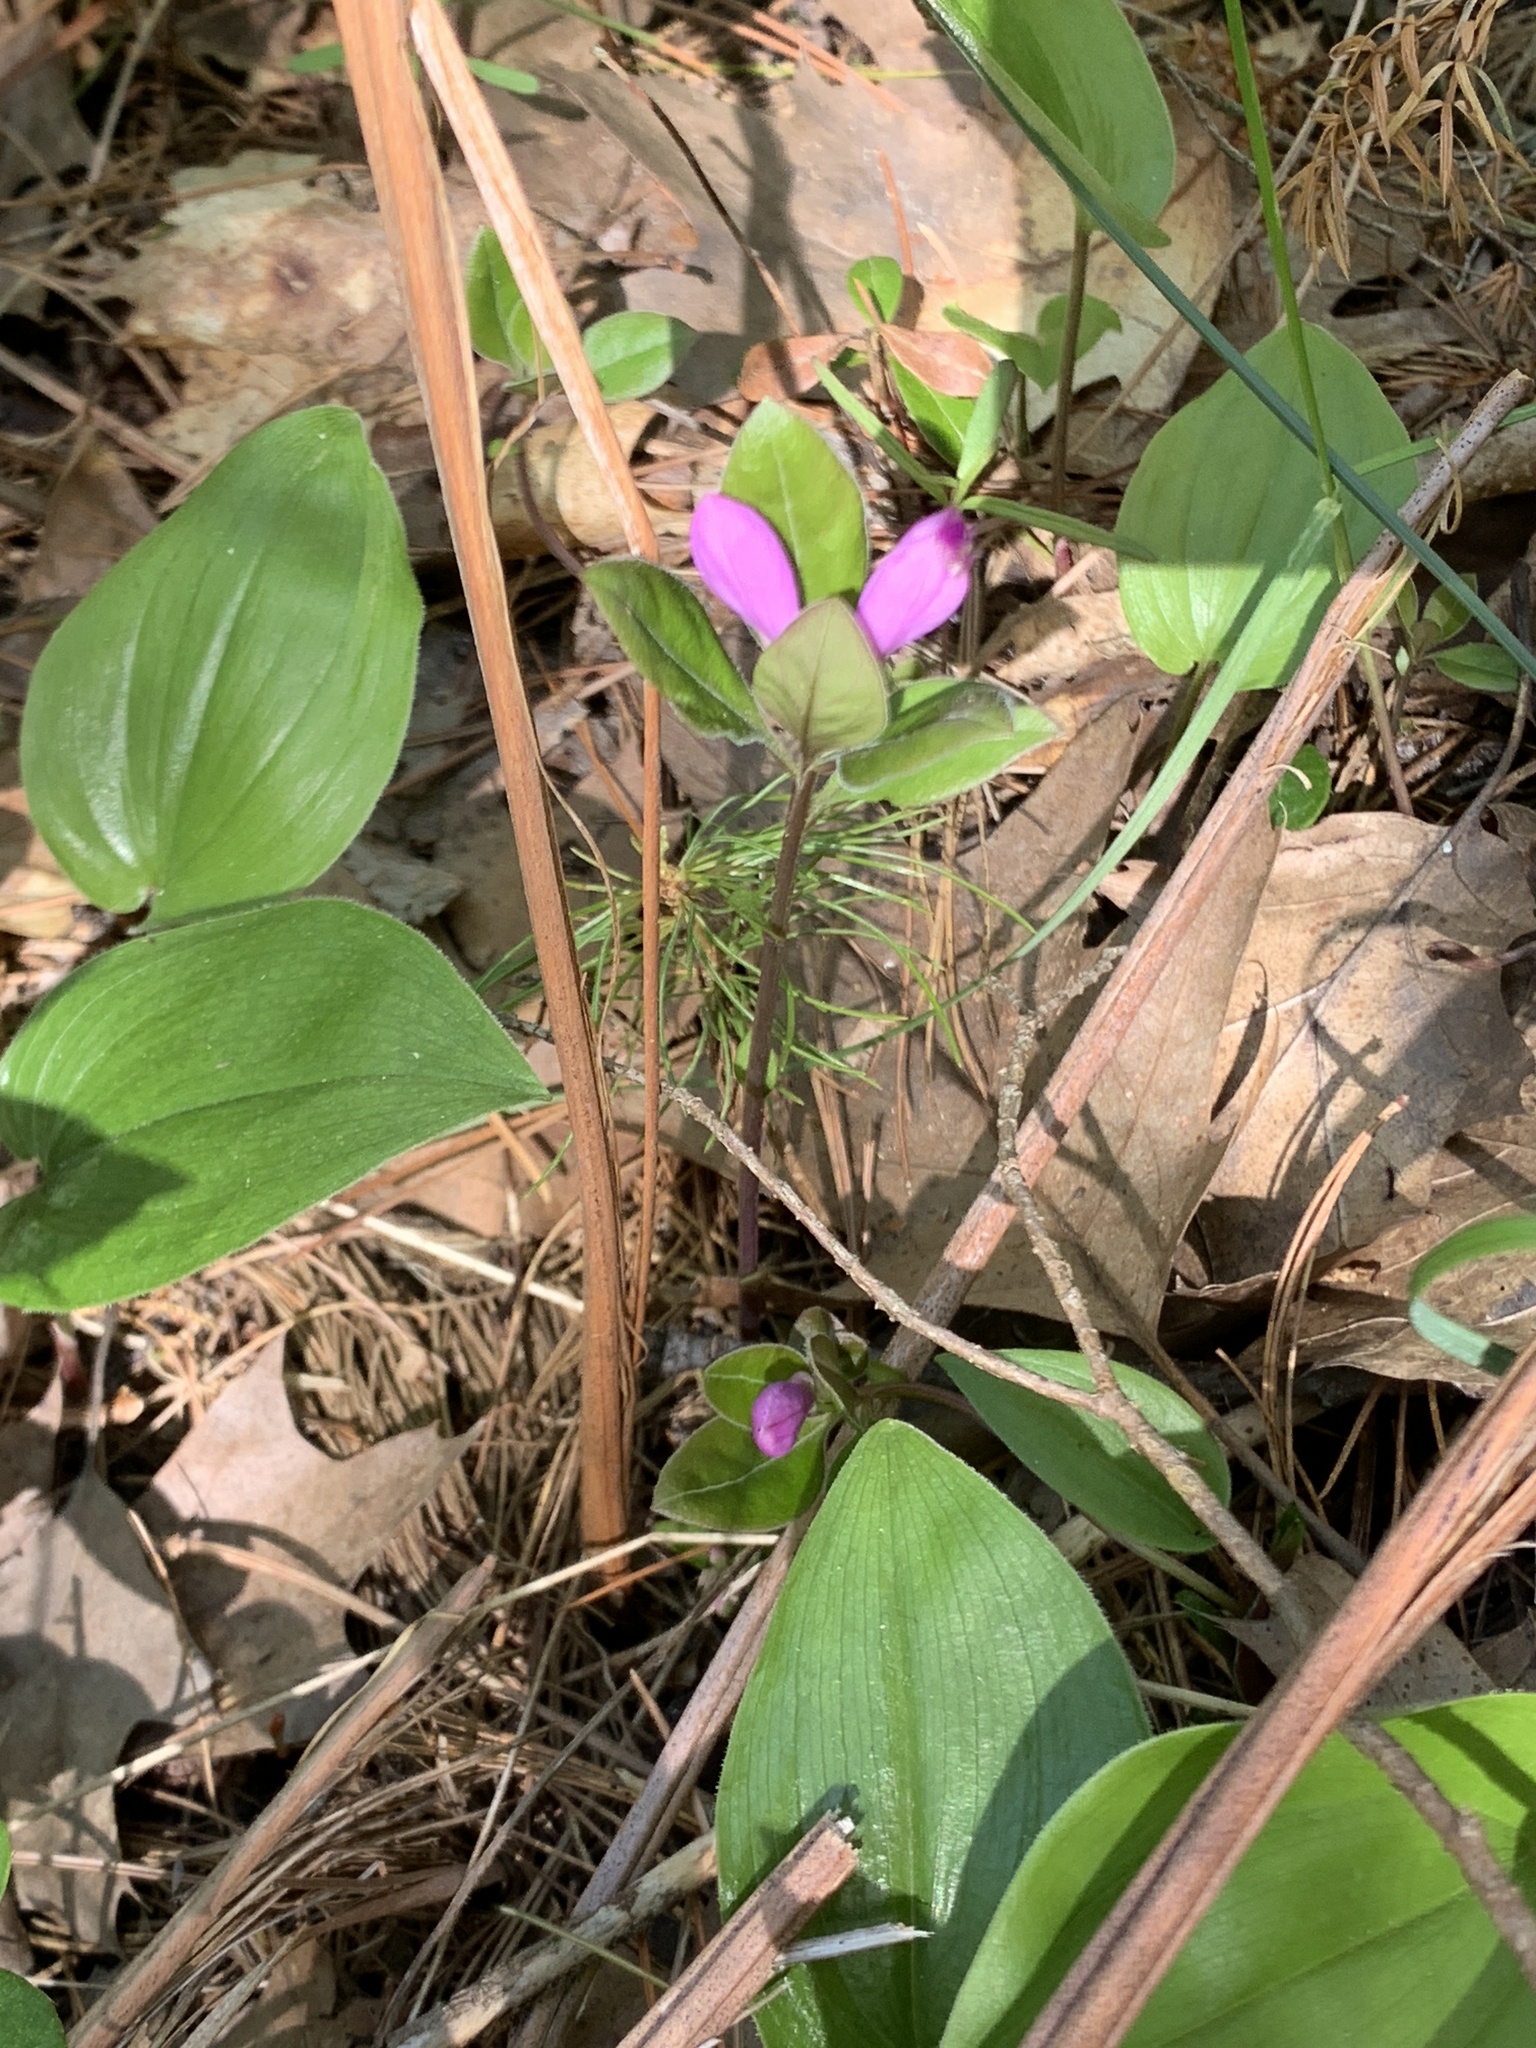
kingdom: Plantae
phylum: Tracheophyta
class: Magnoliopsida
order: Fabales
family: Polygalaceae
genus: Polygaloides
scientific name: Polygaloides paucifolia
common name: Bird-on-the-wing
